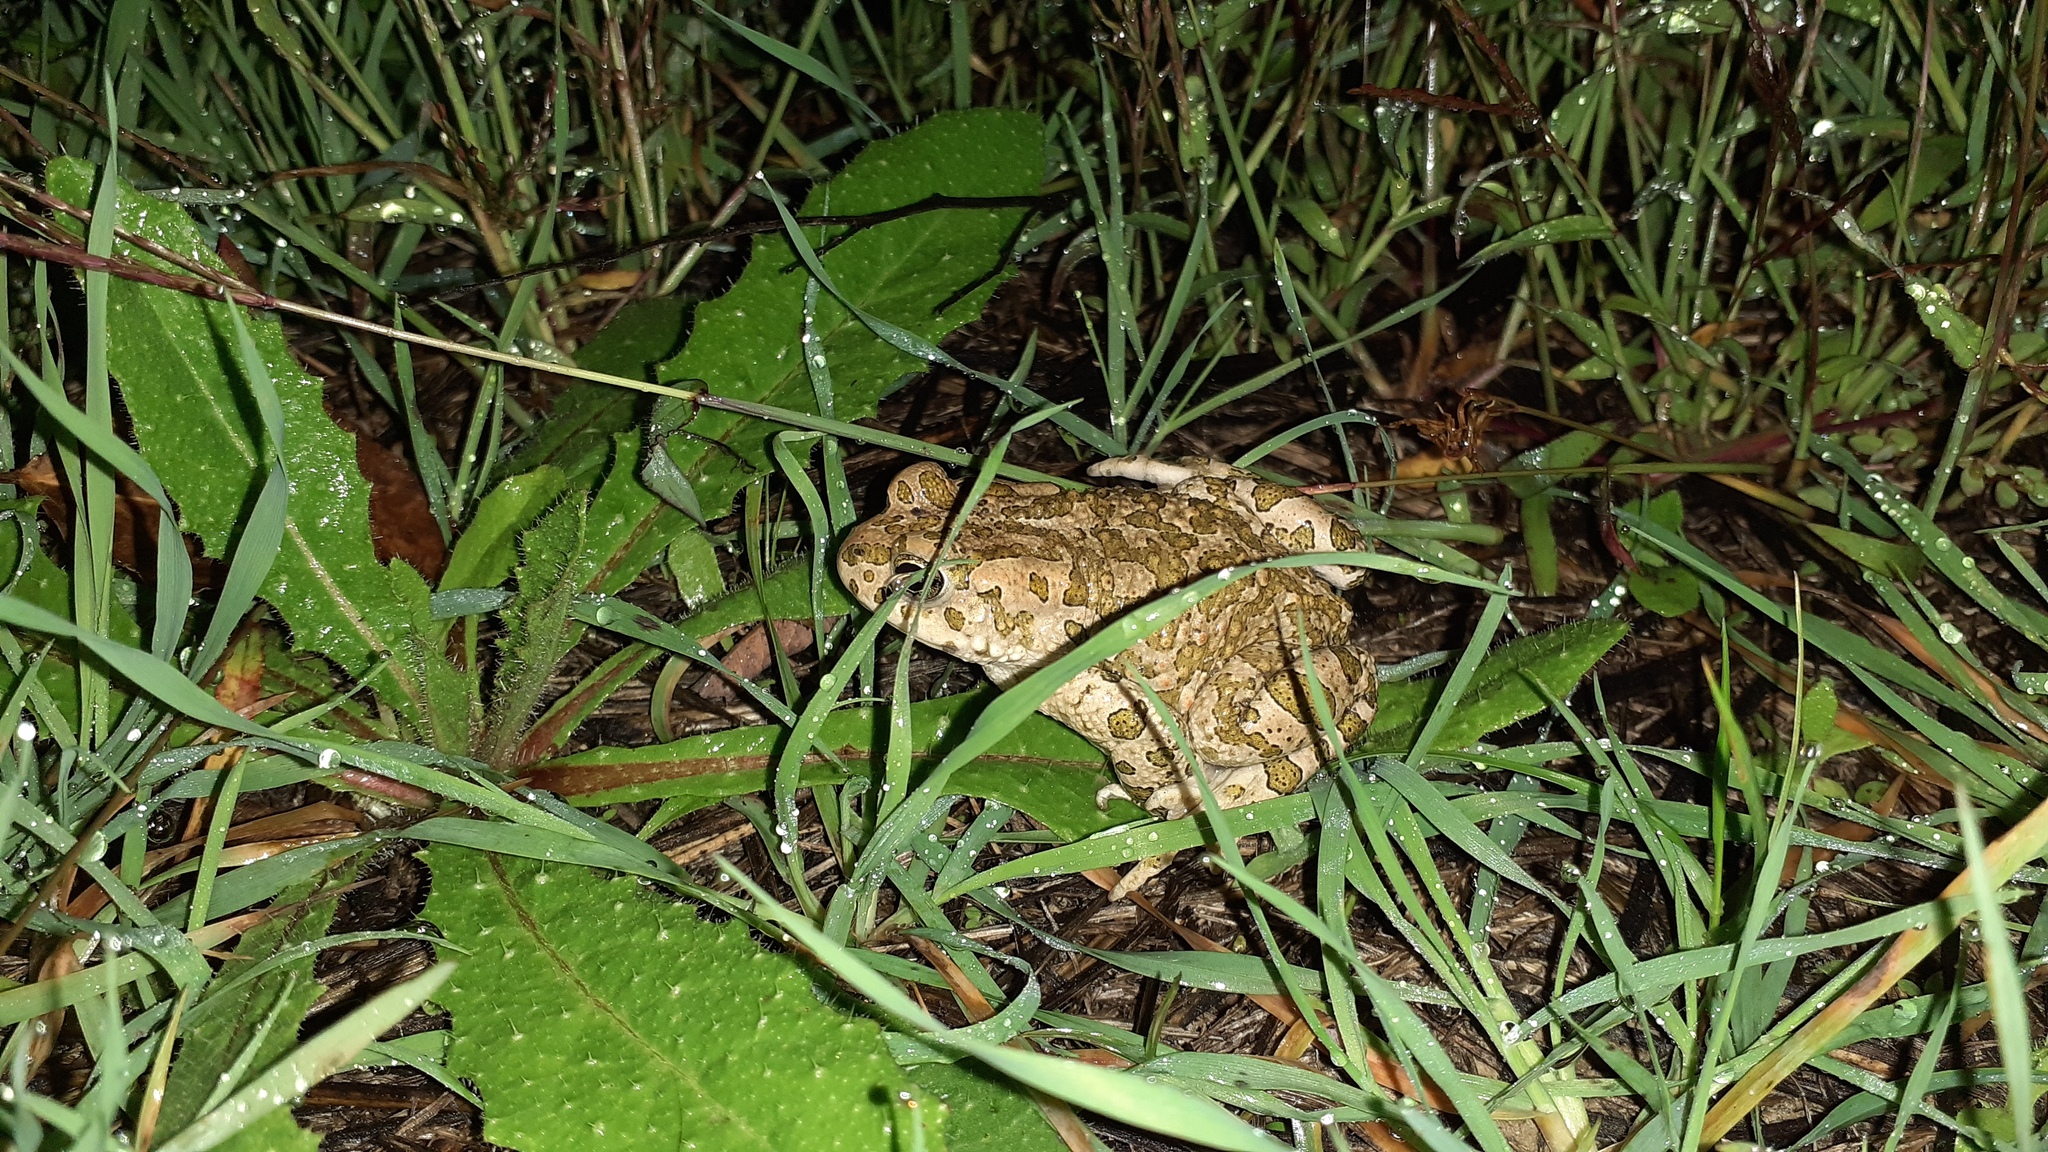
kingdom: Animalia
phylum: Chordata
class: Amphibia
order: Anura
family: Bufonidae
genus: Bufotes
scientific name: Bufotes viridis
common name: European green toad
